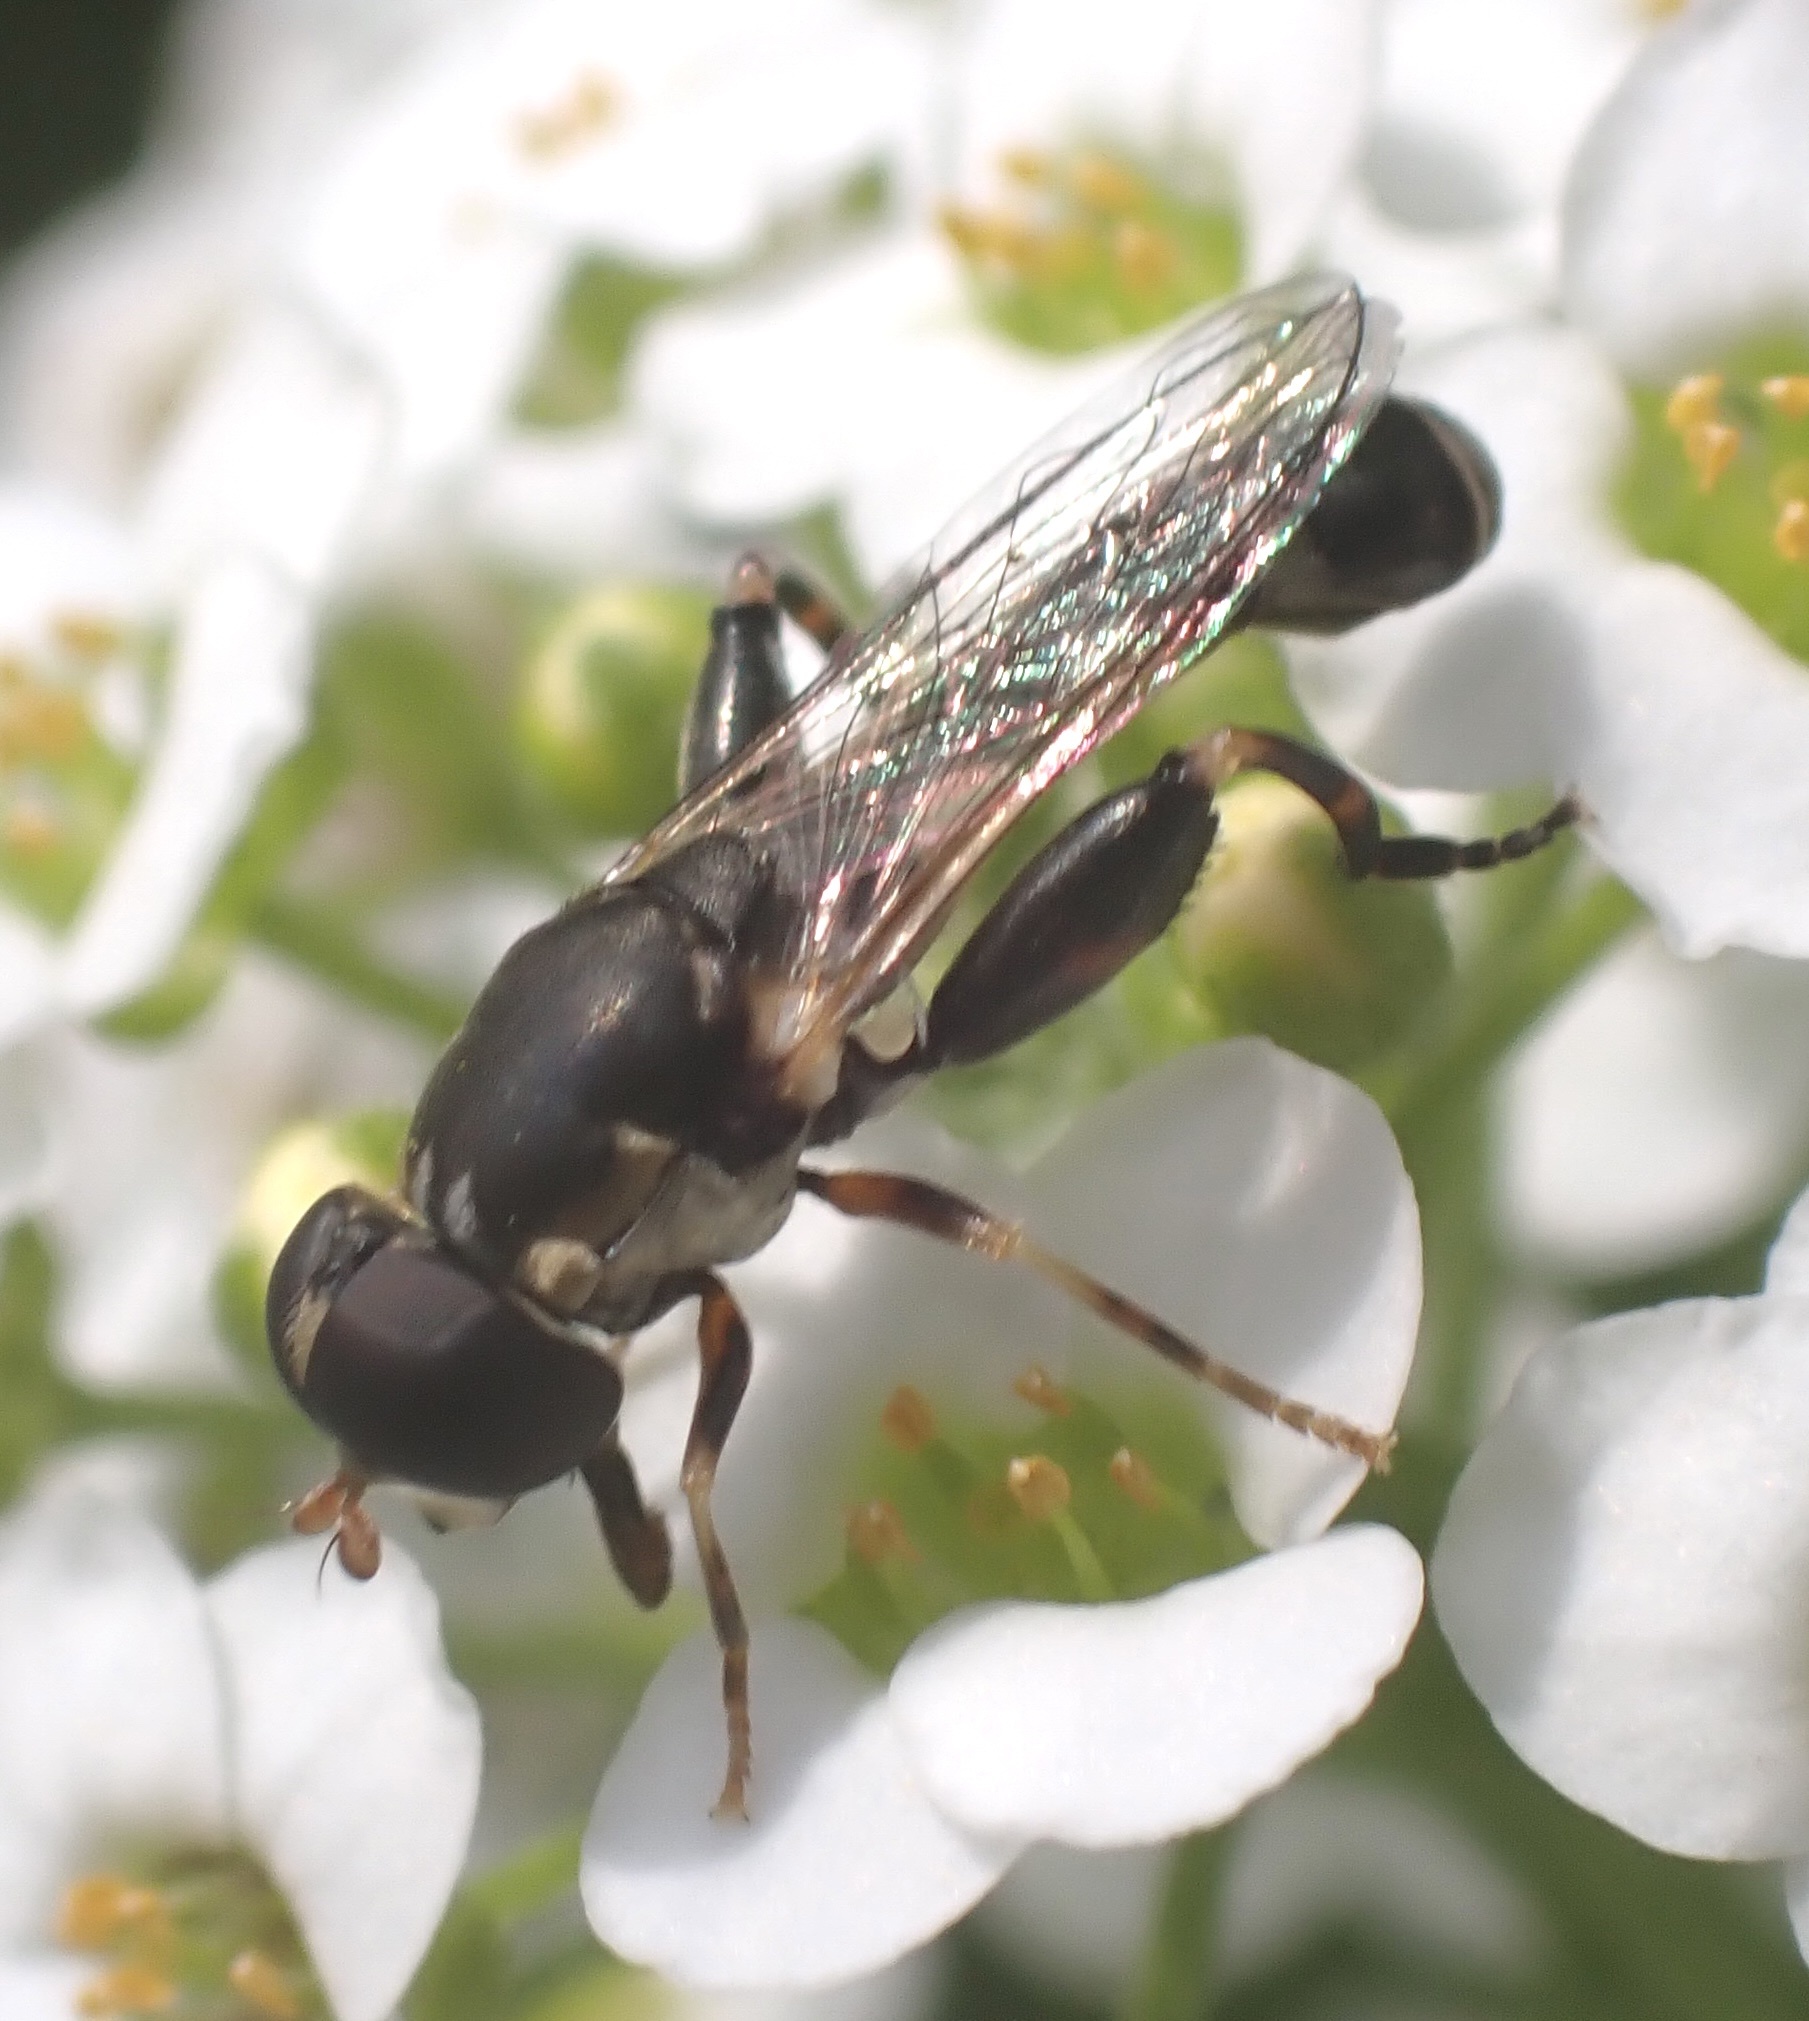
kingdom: Animalia
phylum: Arthropoda
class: Insecta
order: Diptera
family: Syrphidae
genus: Syritta
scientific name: Syritta pipiens
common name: Hover fly
